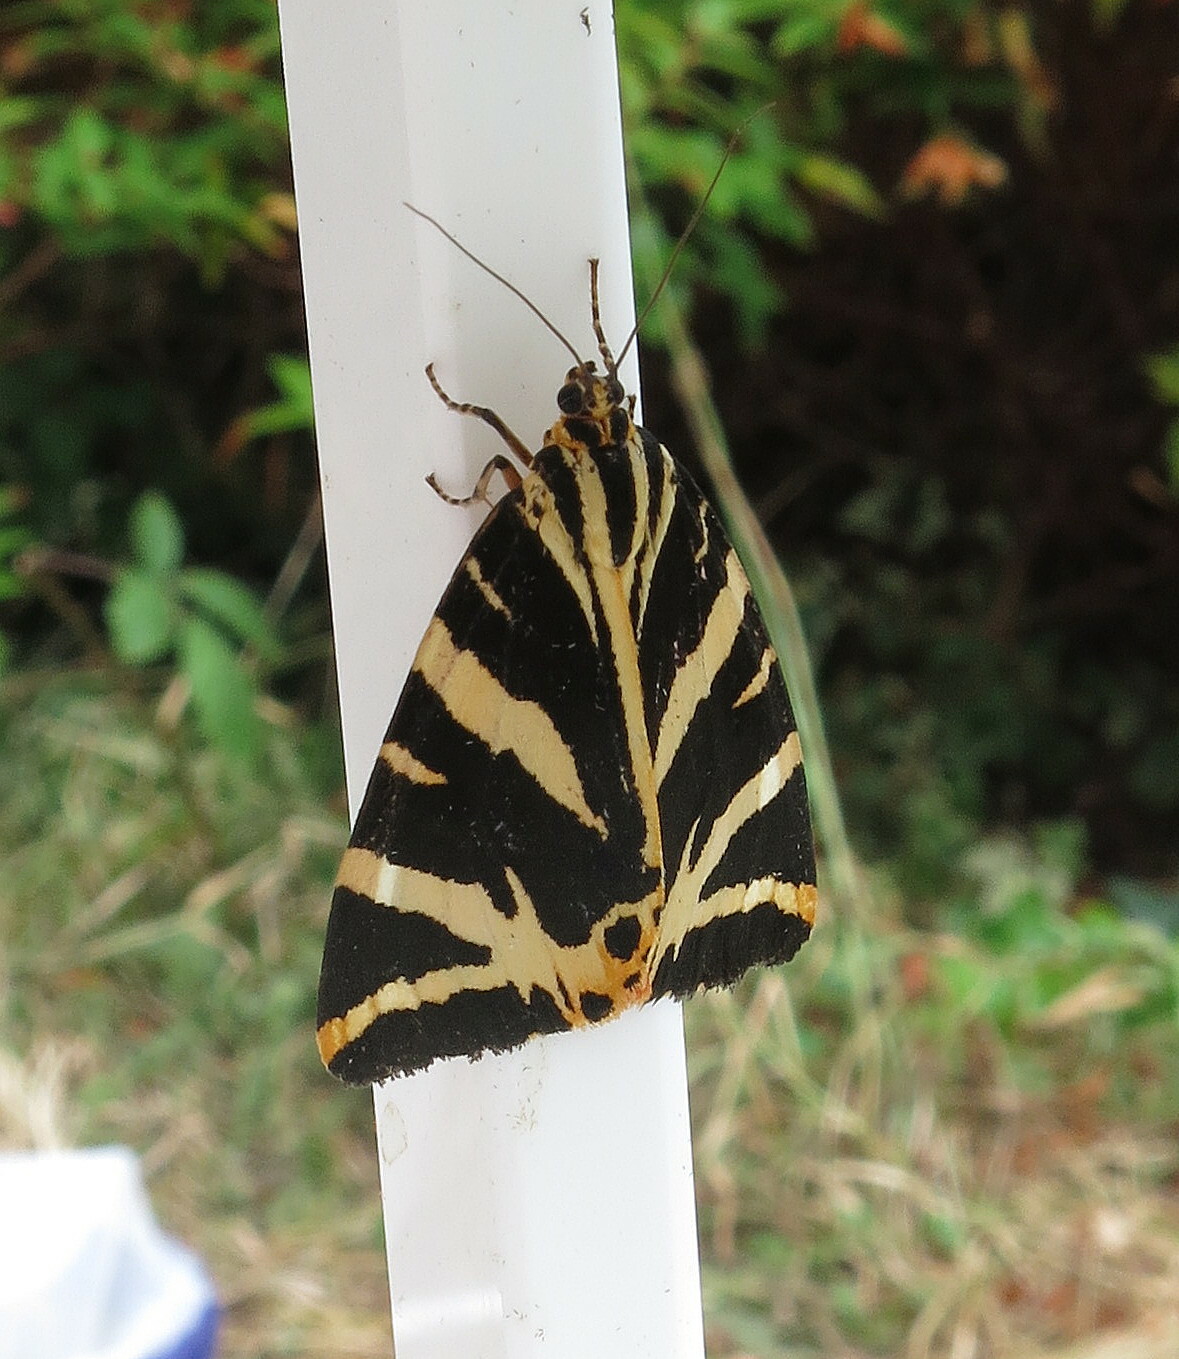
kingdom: Animalia
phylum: Arthropoda
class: Insecta
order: Lepidoptera
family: Erebidae
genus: Euplagia
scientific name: Euplagia quadripunctaria
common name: Jersey tiger
